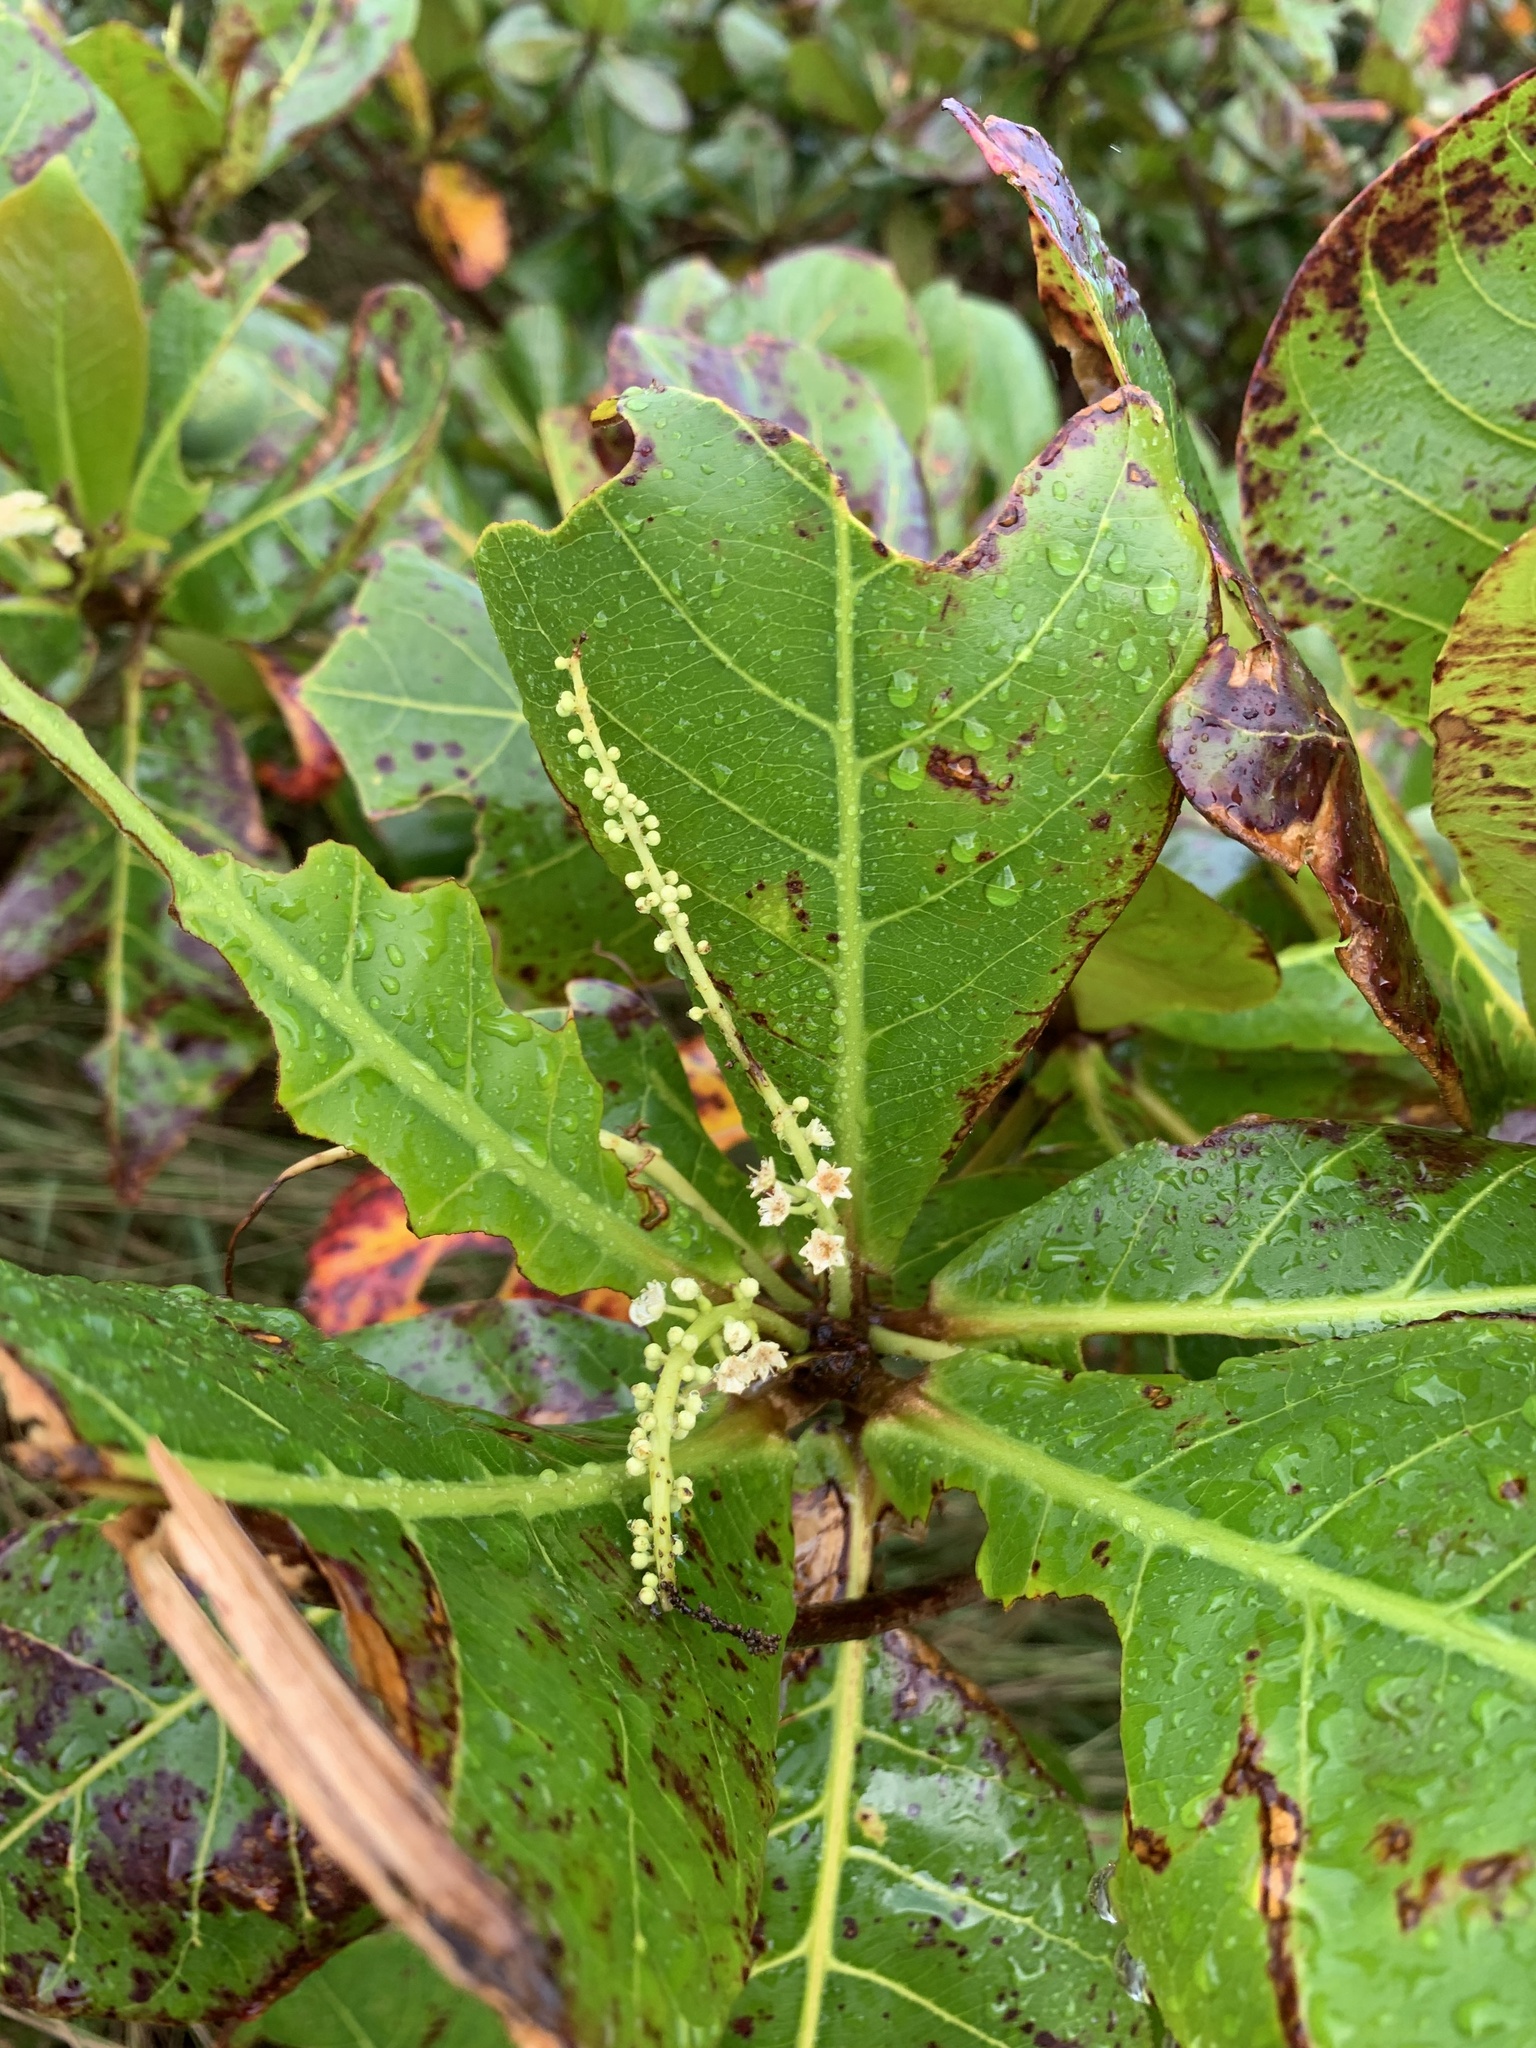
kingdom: Plantae
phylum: Tracheophyta
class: Magnoliopsida
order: Myrtales
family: Combretaceae
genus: Terminalia
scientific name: Terminalia catappa
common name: Tropical almond
